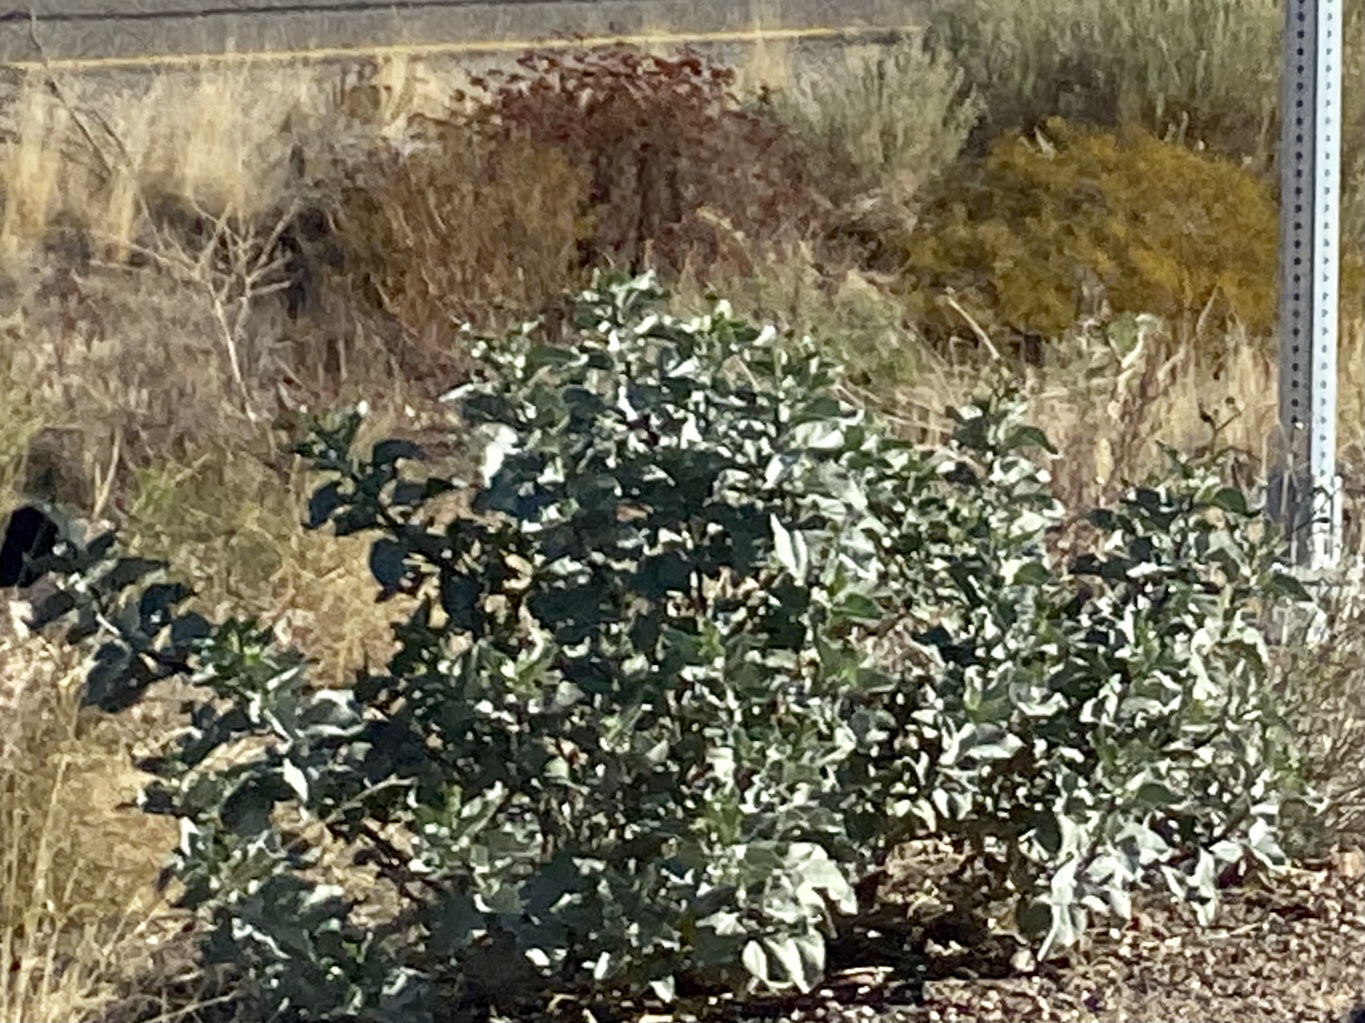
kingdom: Plantae
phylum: Tracheophyta
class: Magnoliopsida
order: Asterales
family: Asteraceae
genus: Encelia
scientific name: Encelia farinosa
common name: Brittlebush
